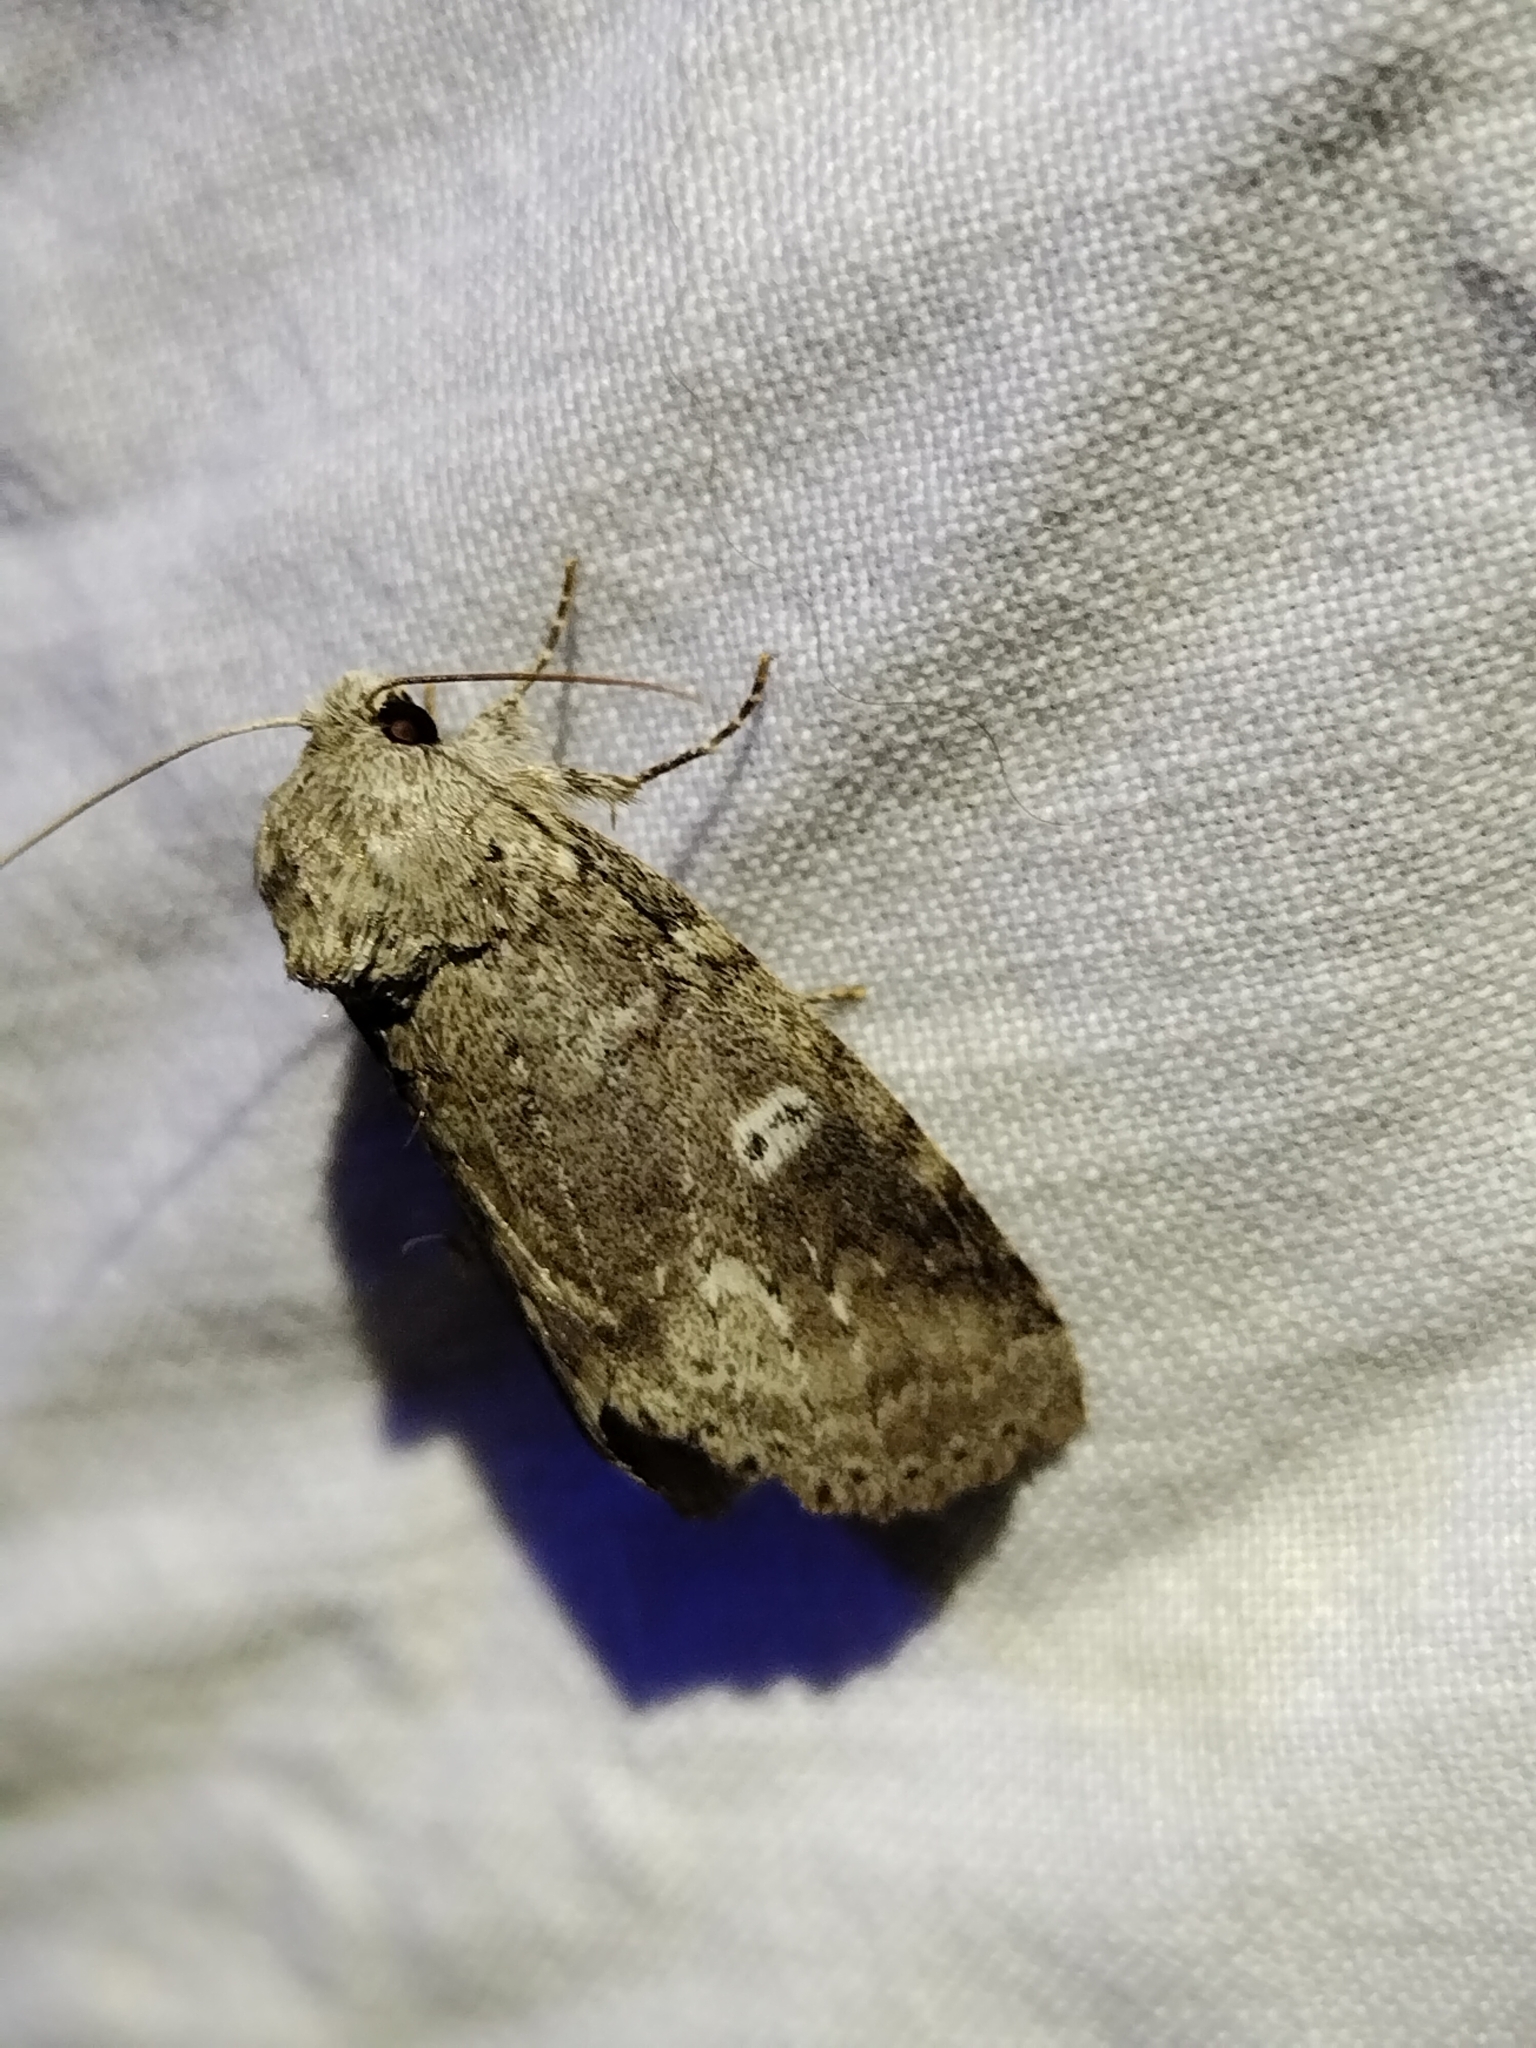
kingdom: Animalia
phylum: Arthropoda
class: Insecta
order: Lepidoptera
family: Notodontidae
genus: Lochmaeus
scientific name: Lochmaeus manteo
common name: Variable oakleaf caterpillar moth
